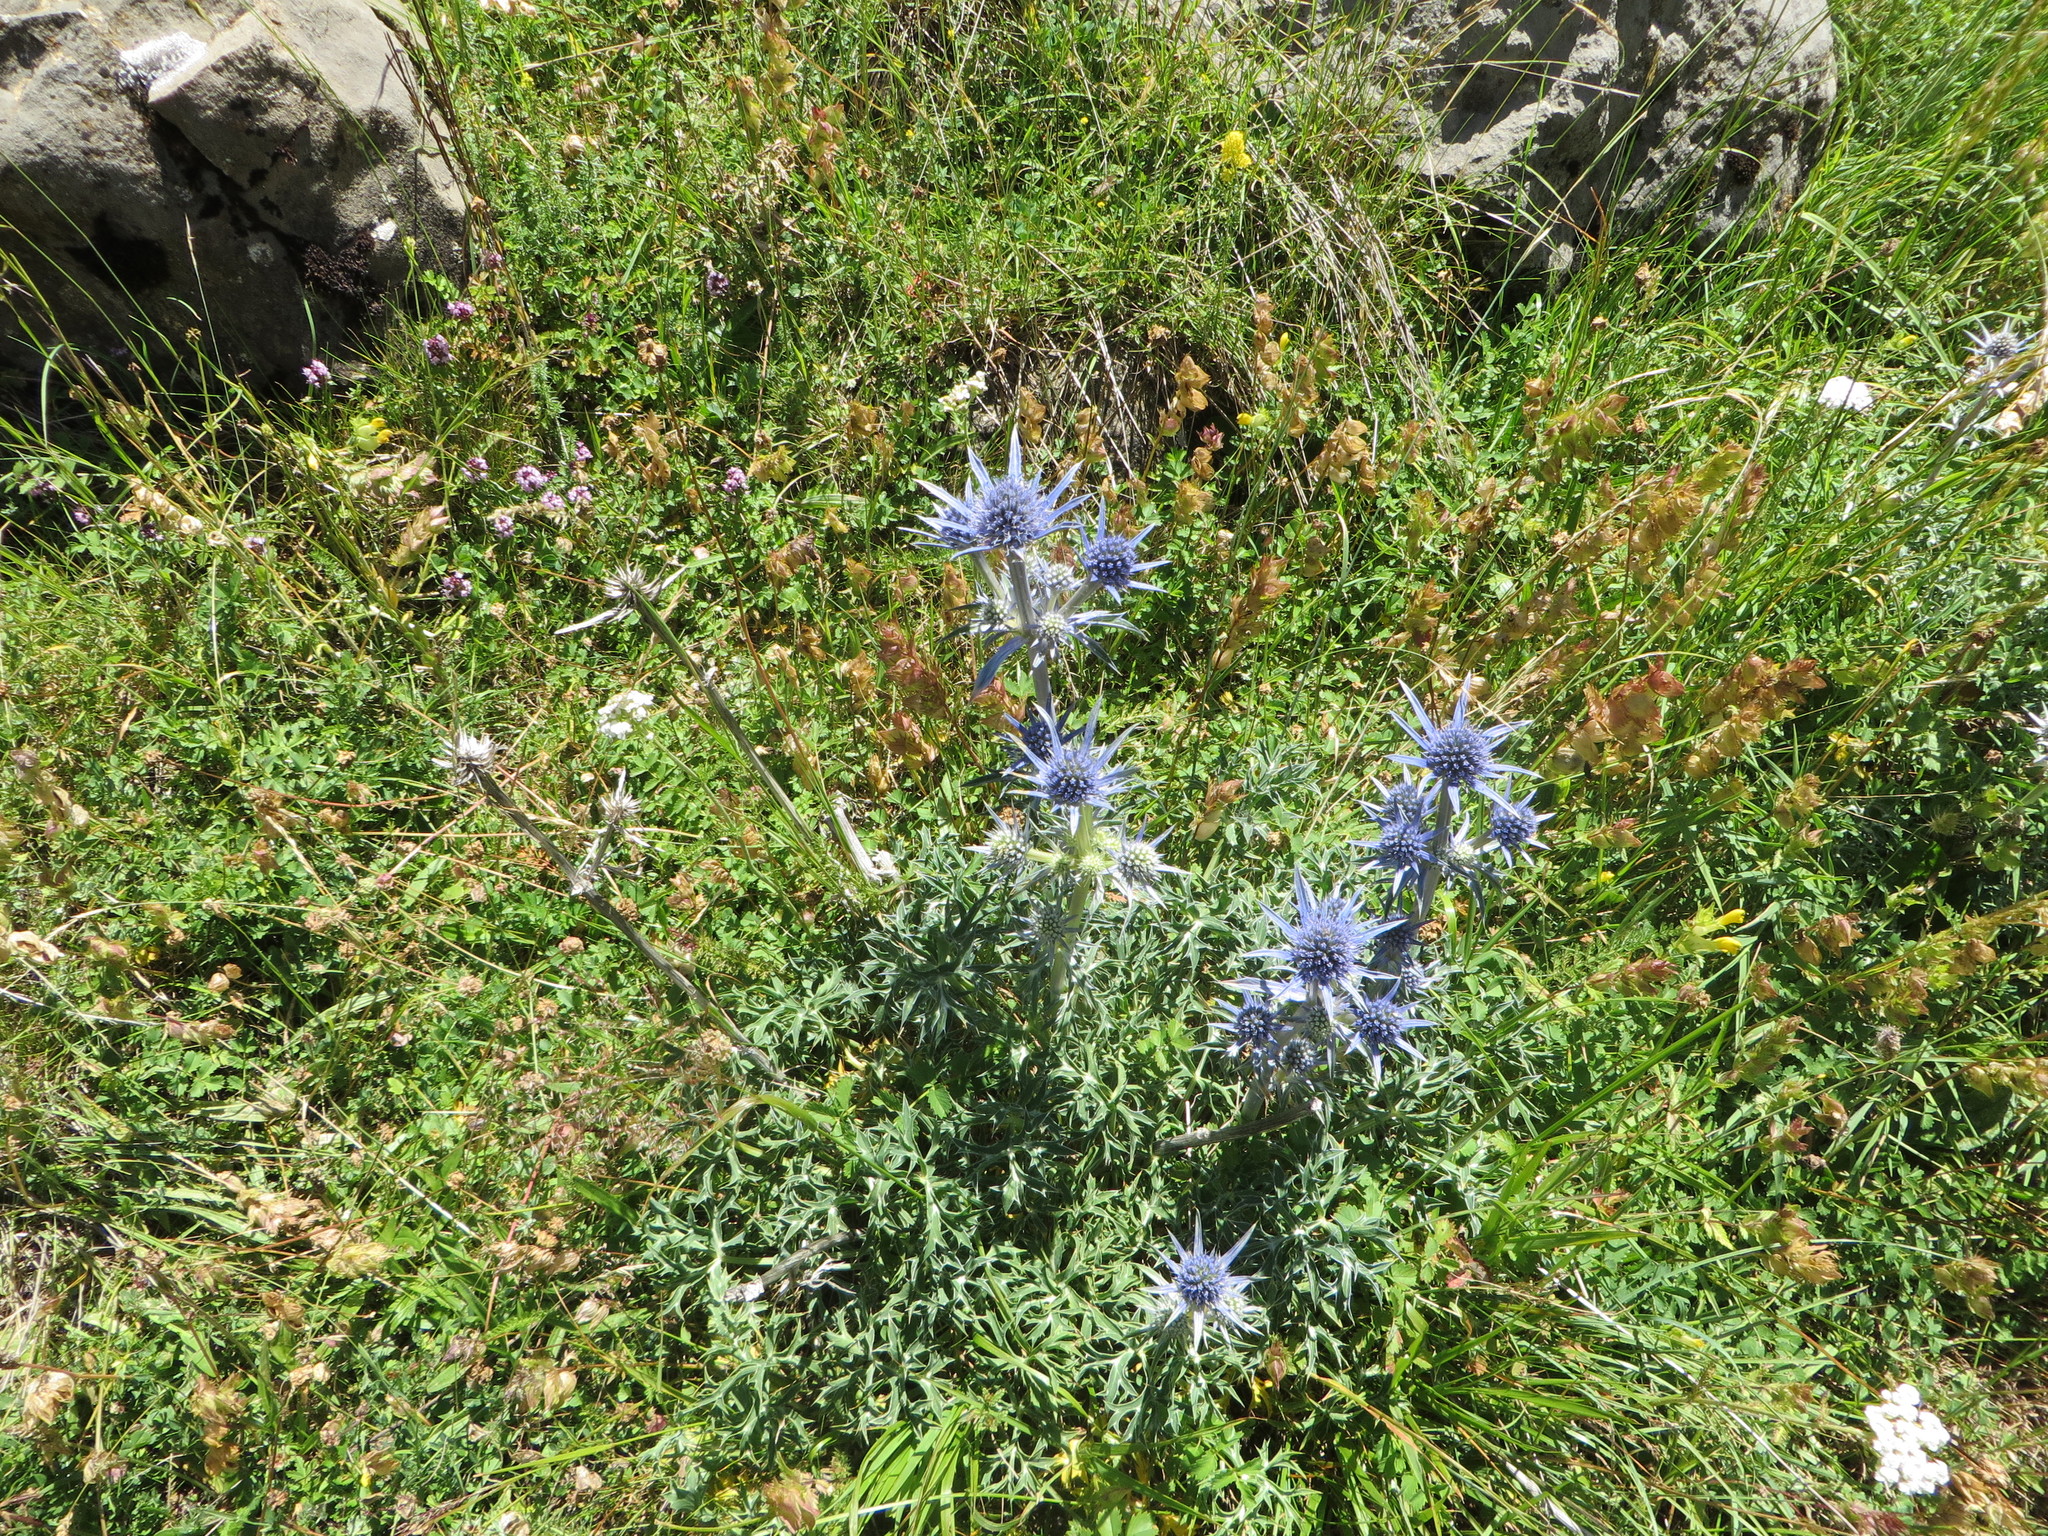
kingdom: Plantae
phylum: Tracheophyta
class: Magnoliopsida
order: Apiales
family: Apiaceae
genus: Eryngium
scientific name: Eryngium bourgatii
